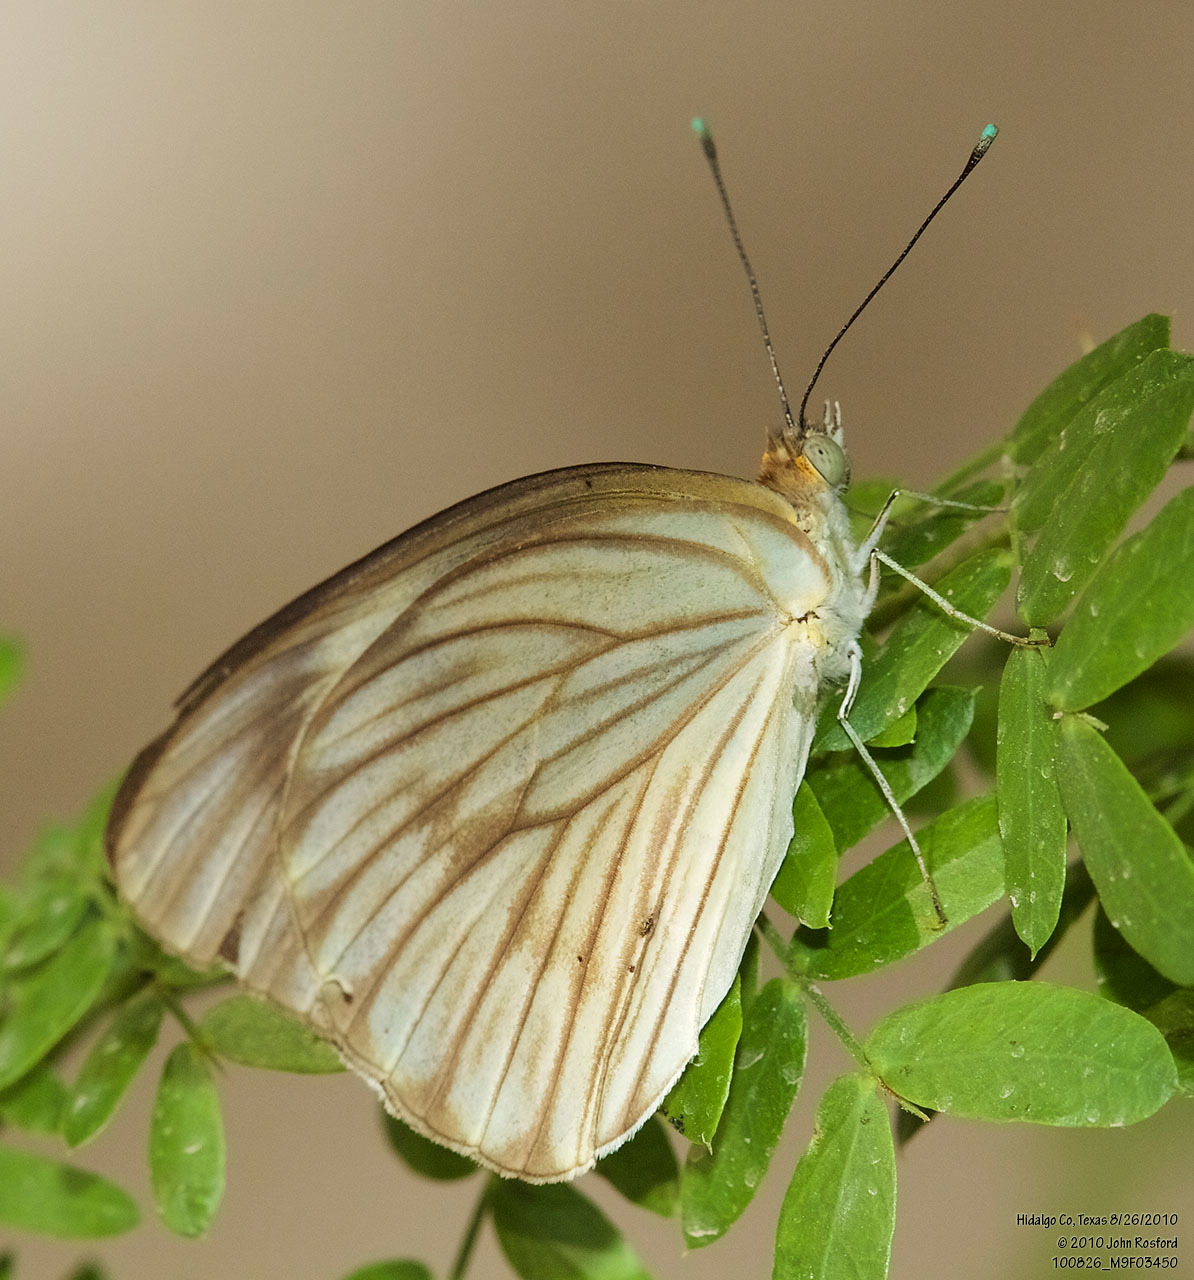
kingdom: Animalia
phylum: Arthropoda
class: Insecta
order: Lepidoptera
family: Pieridae
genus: Ascia
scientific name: Ascia monuste
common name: Great southern white
